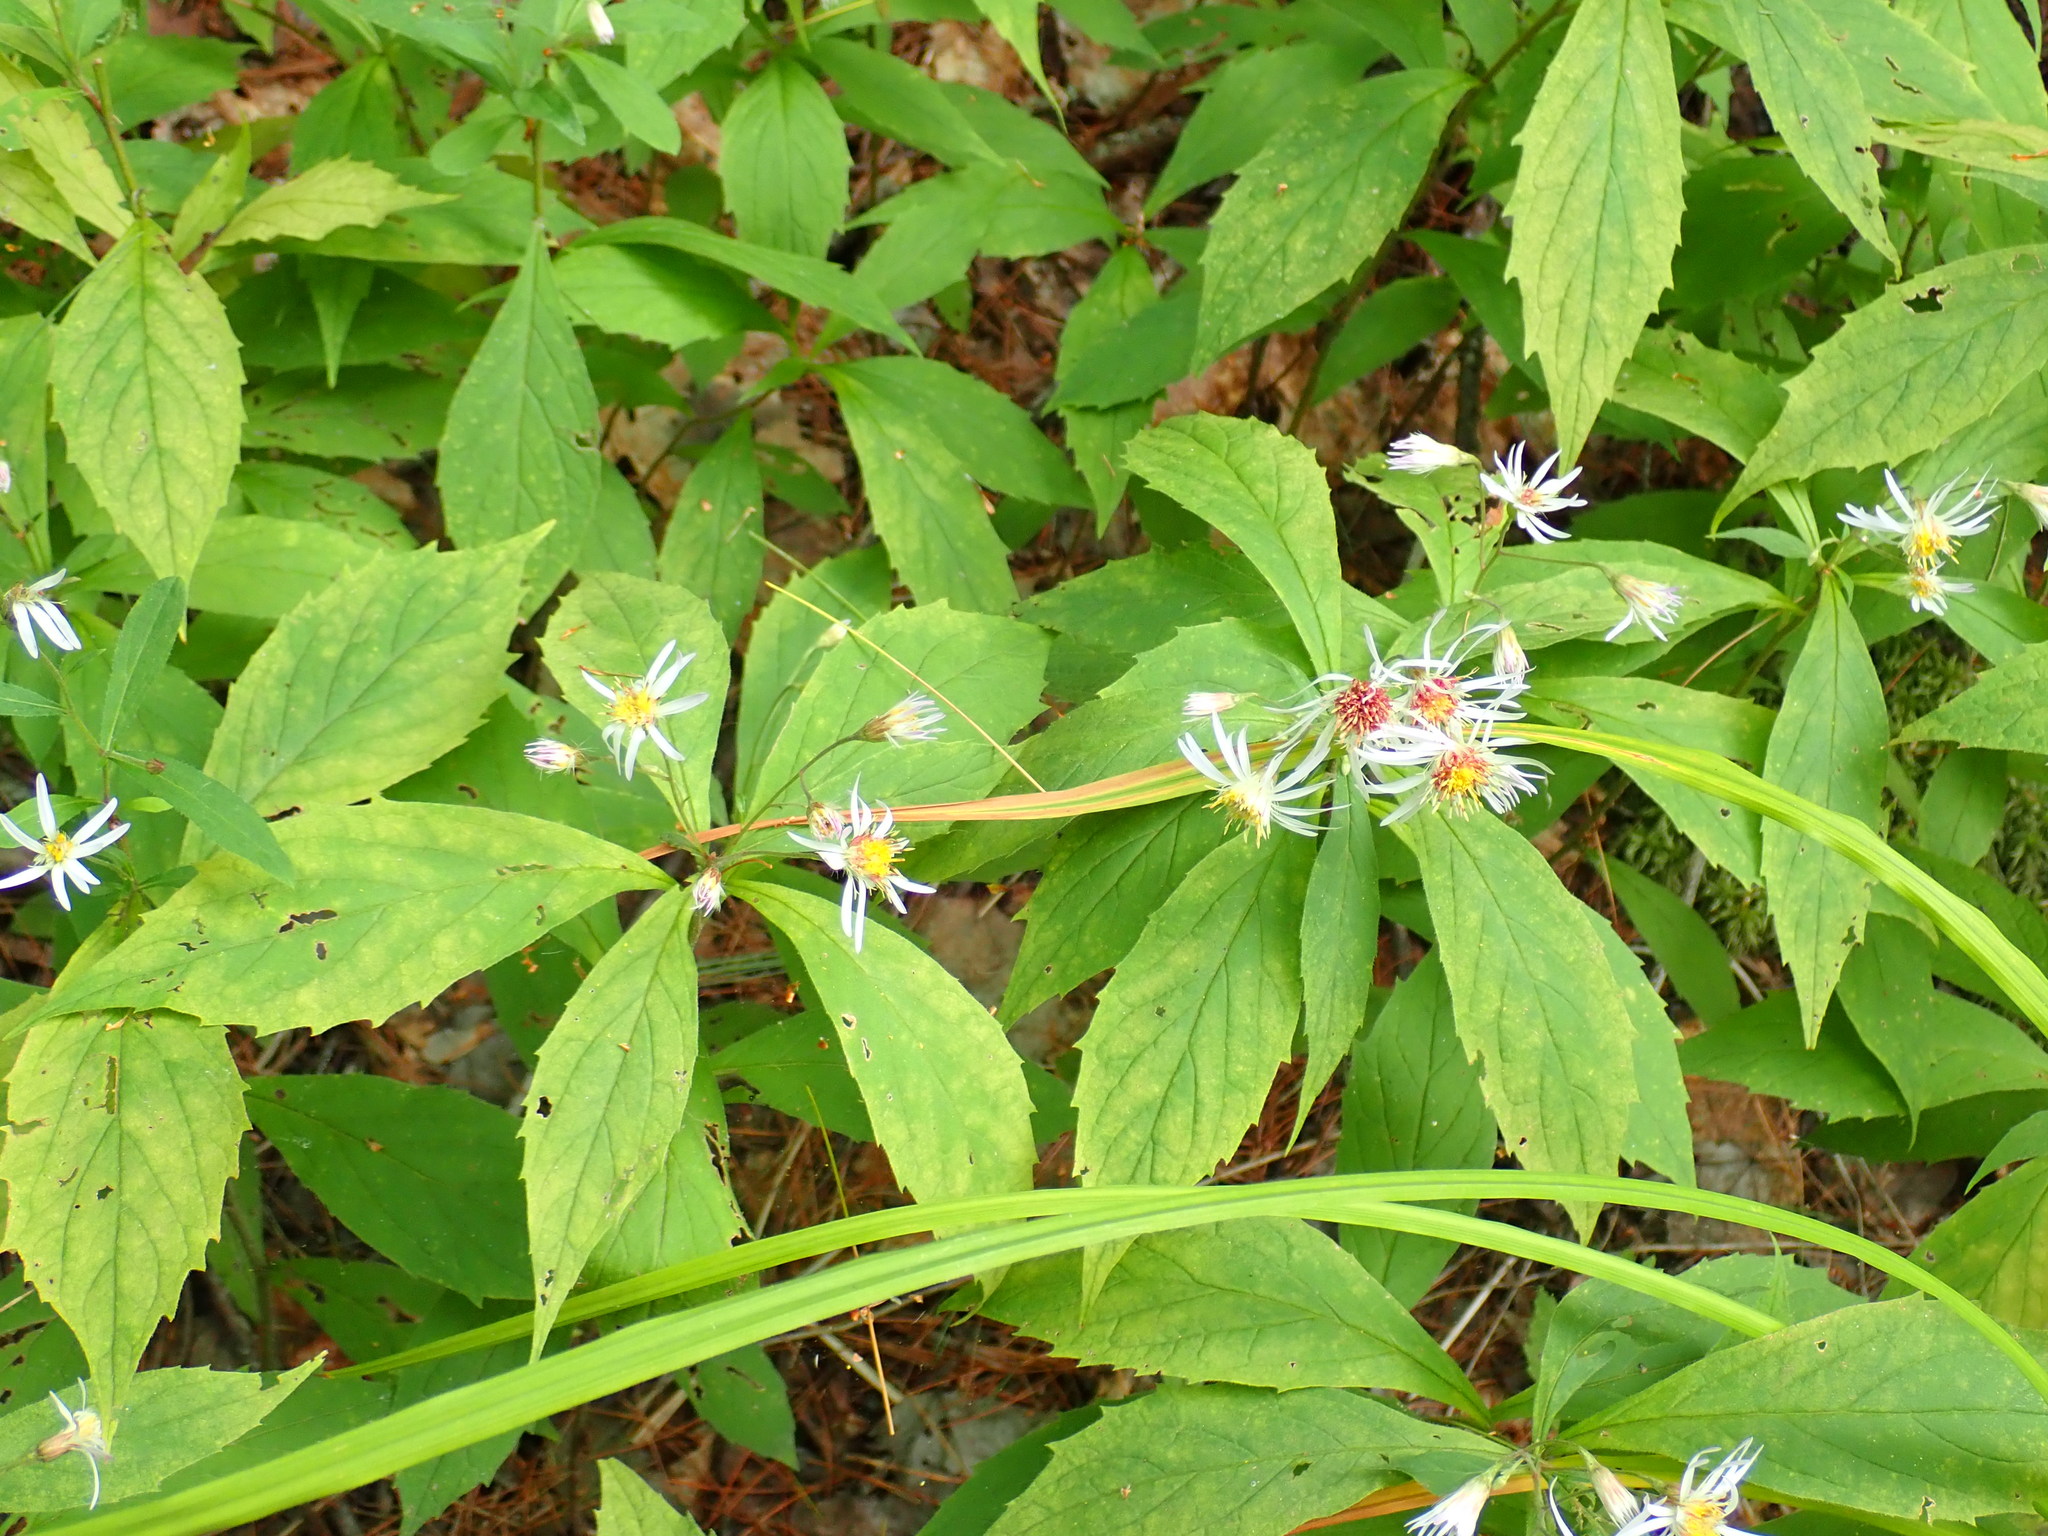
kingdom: Plantae
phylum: Tracheophyta
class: Magnoliopsida
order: Asterales
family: Asteraceae
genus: Oclemena
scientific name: Oclemena acuminata
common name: Mountain aster
